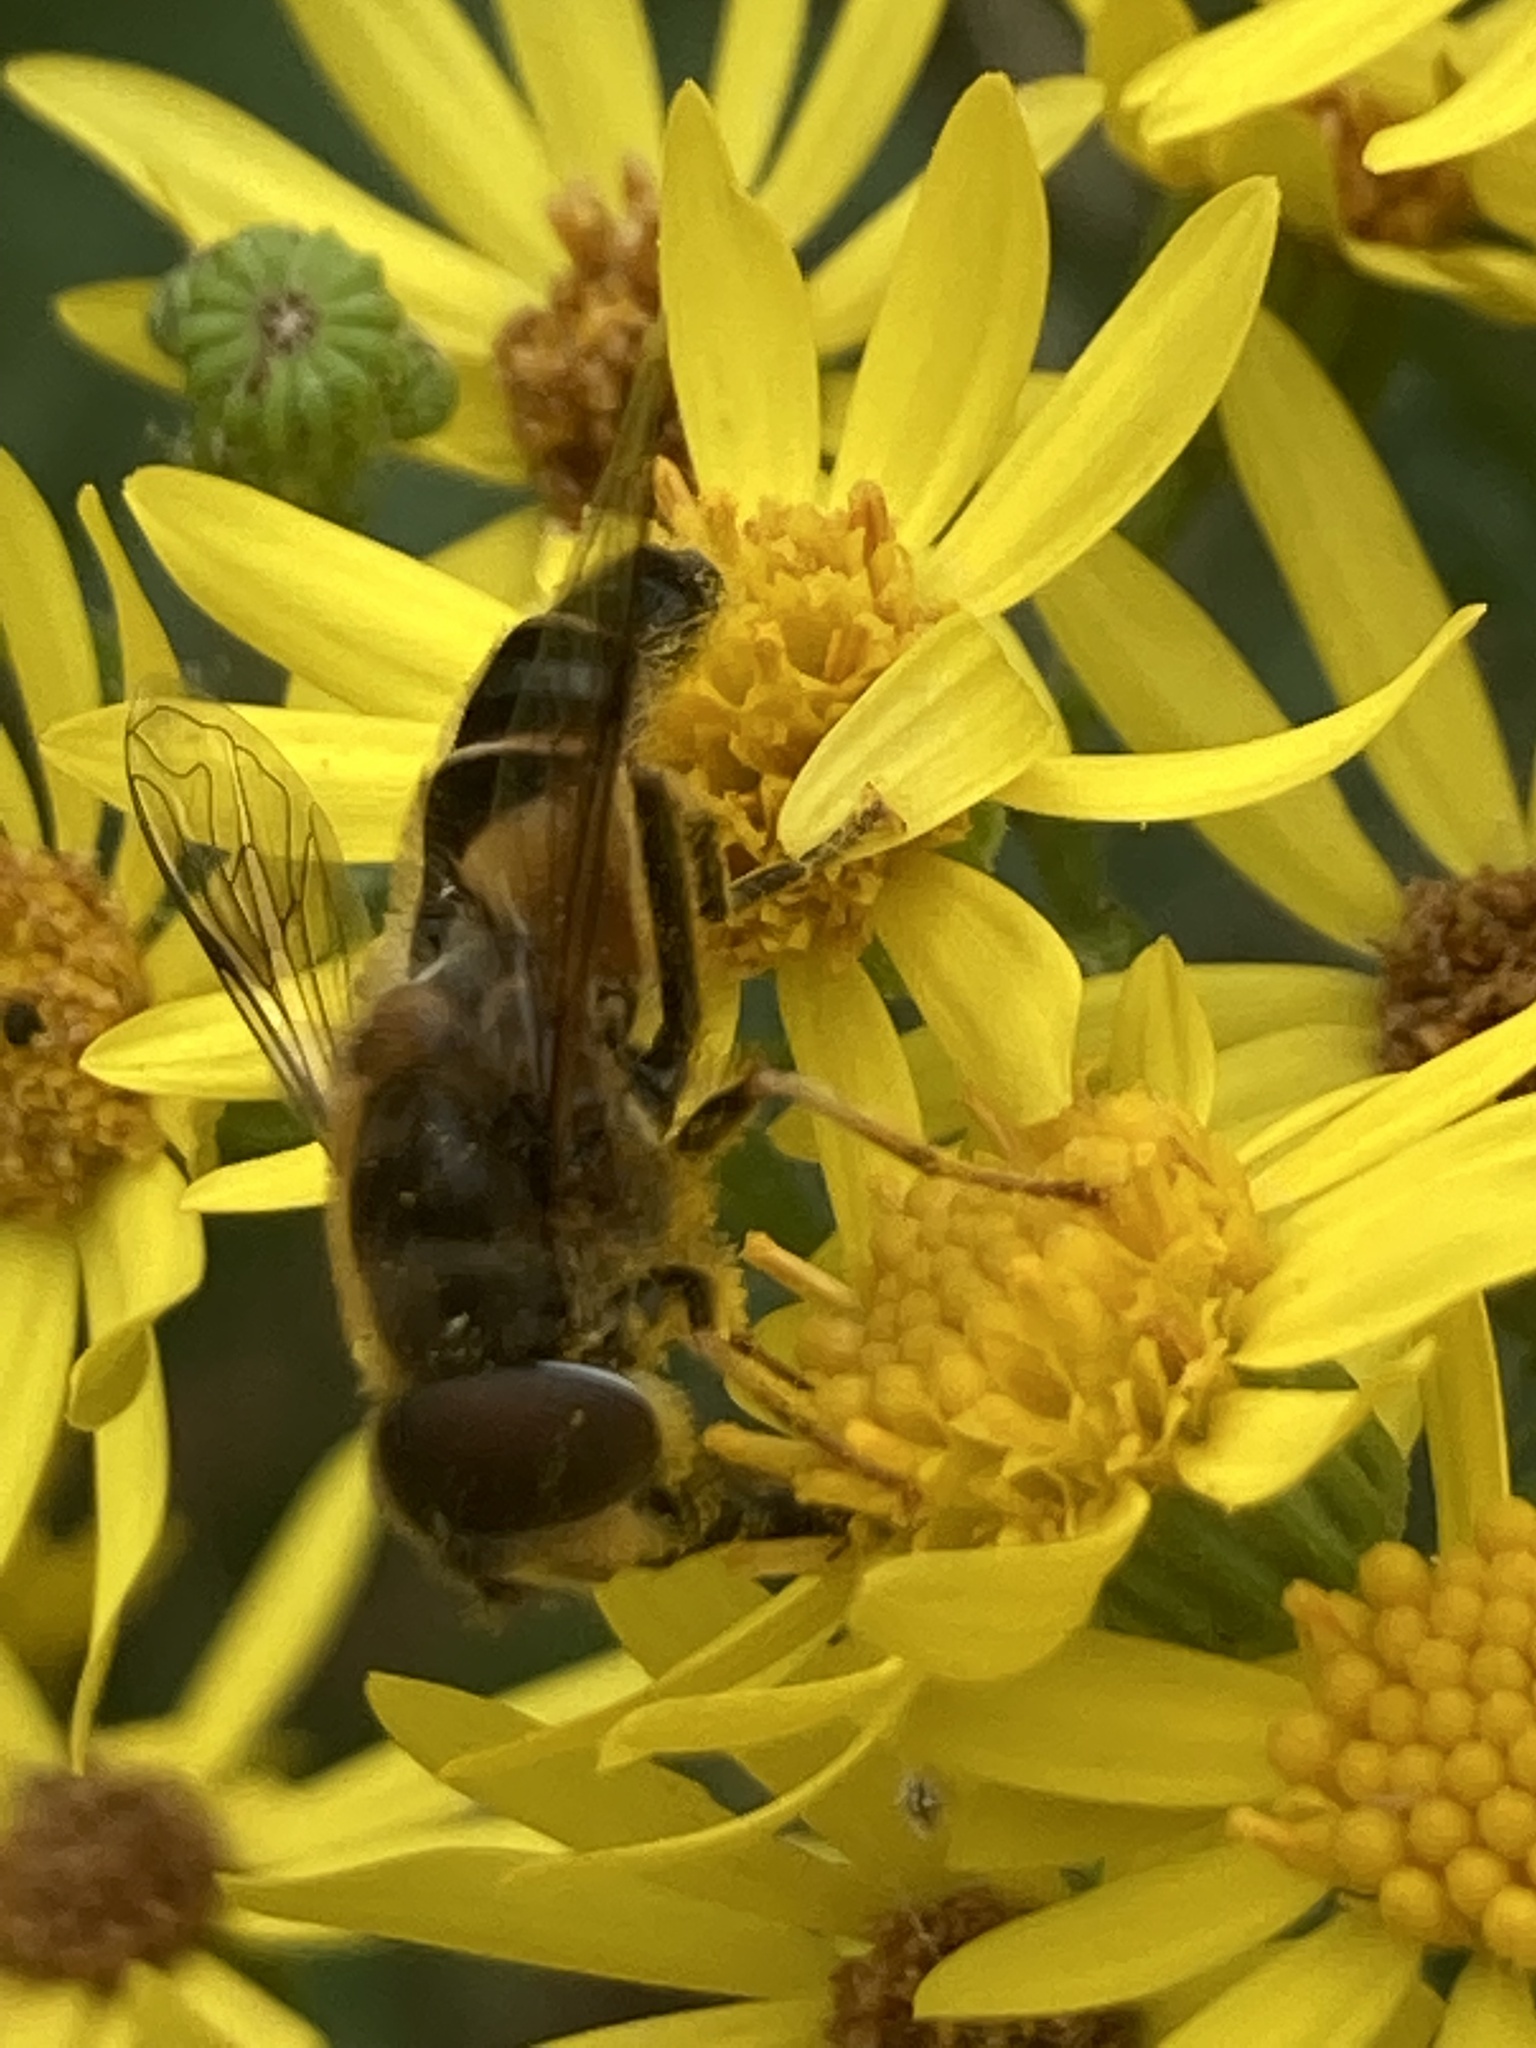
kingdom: Animalia
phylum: Arthropoda
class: Insecta
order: Diptera
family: Syrphidae
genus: Eristalis
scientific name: Eristalis pertinax
